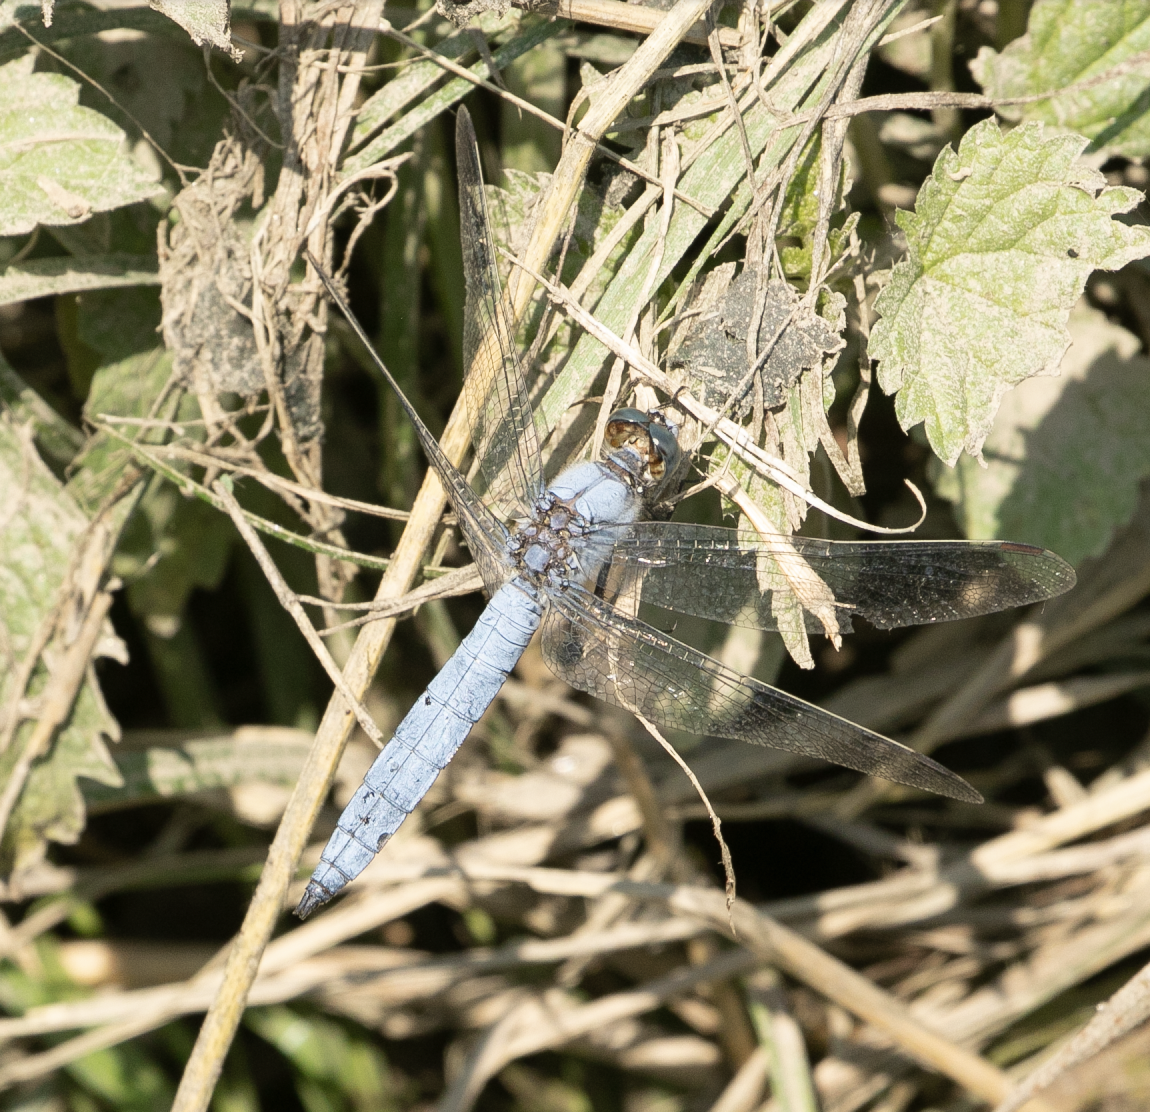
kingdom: Animalia
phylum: Arthropoda
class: Insecta
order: Odonata
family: Libellulidae
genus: Orthetrum
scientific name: Orthetrum brunneum
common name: Southern skimmer
